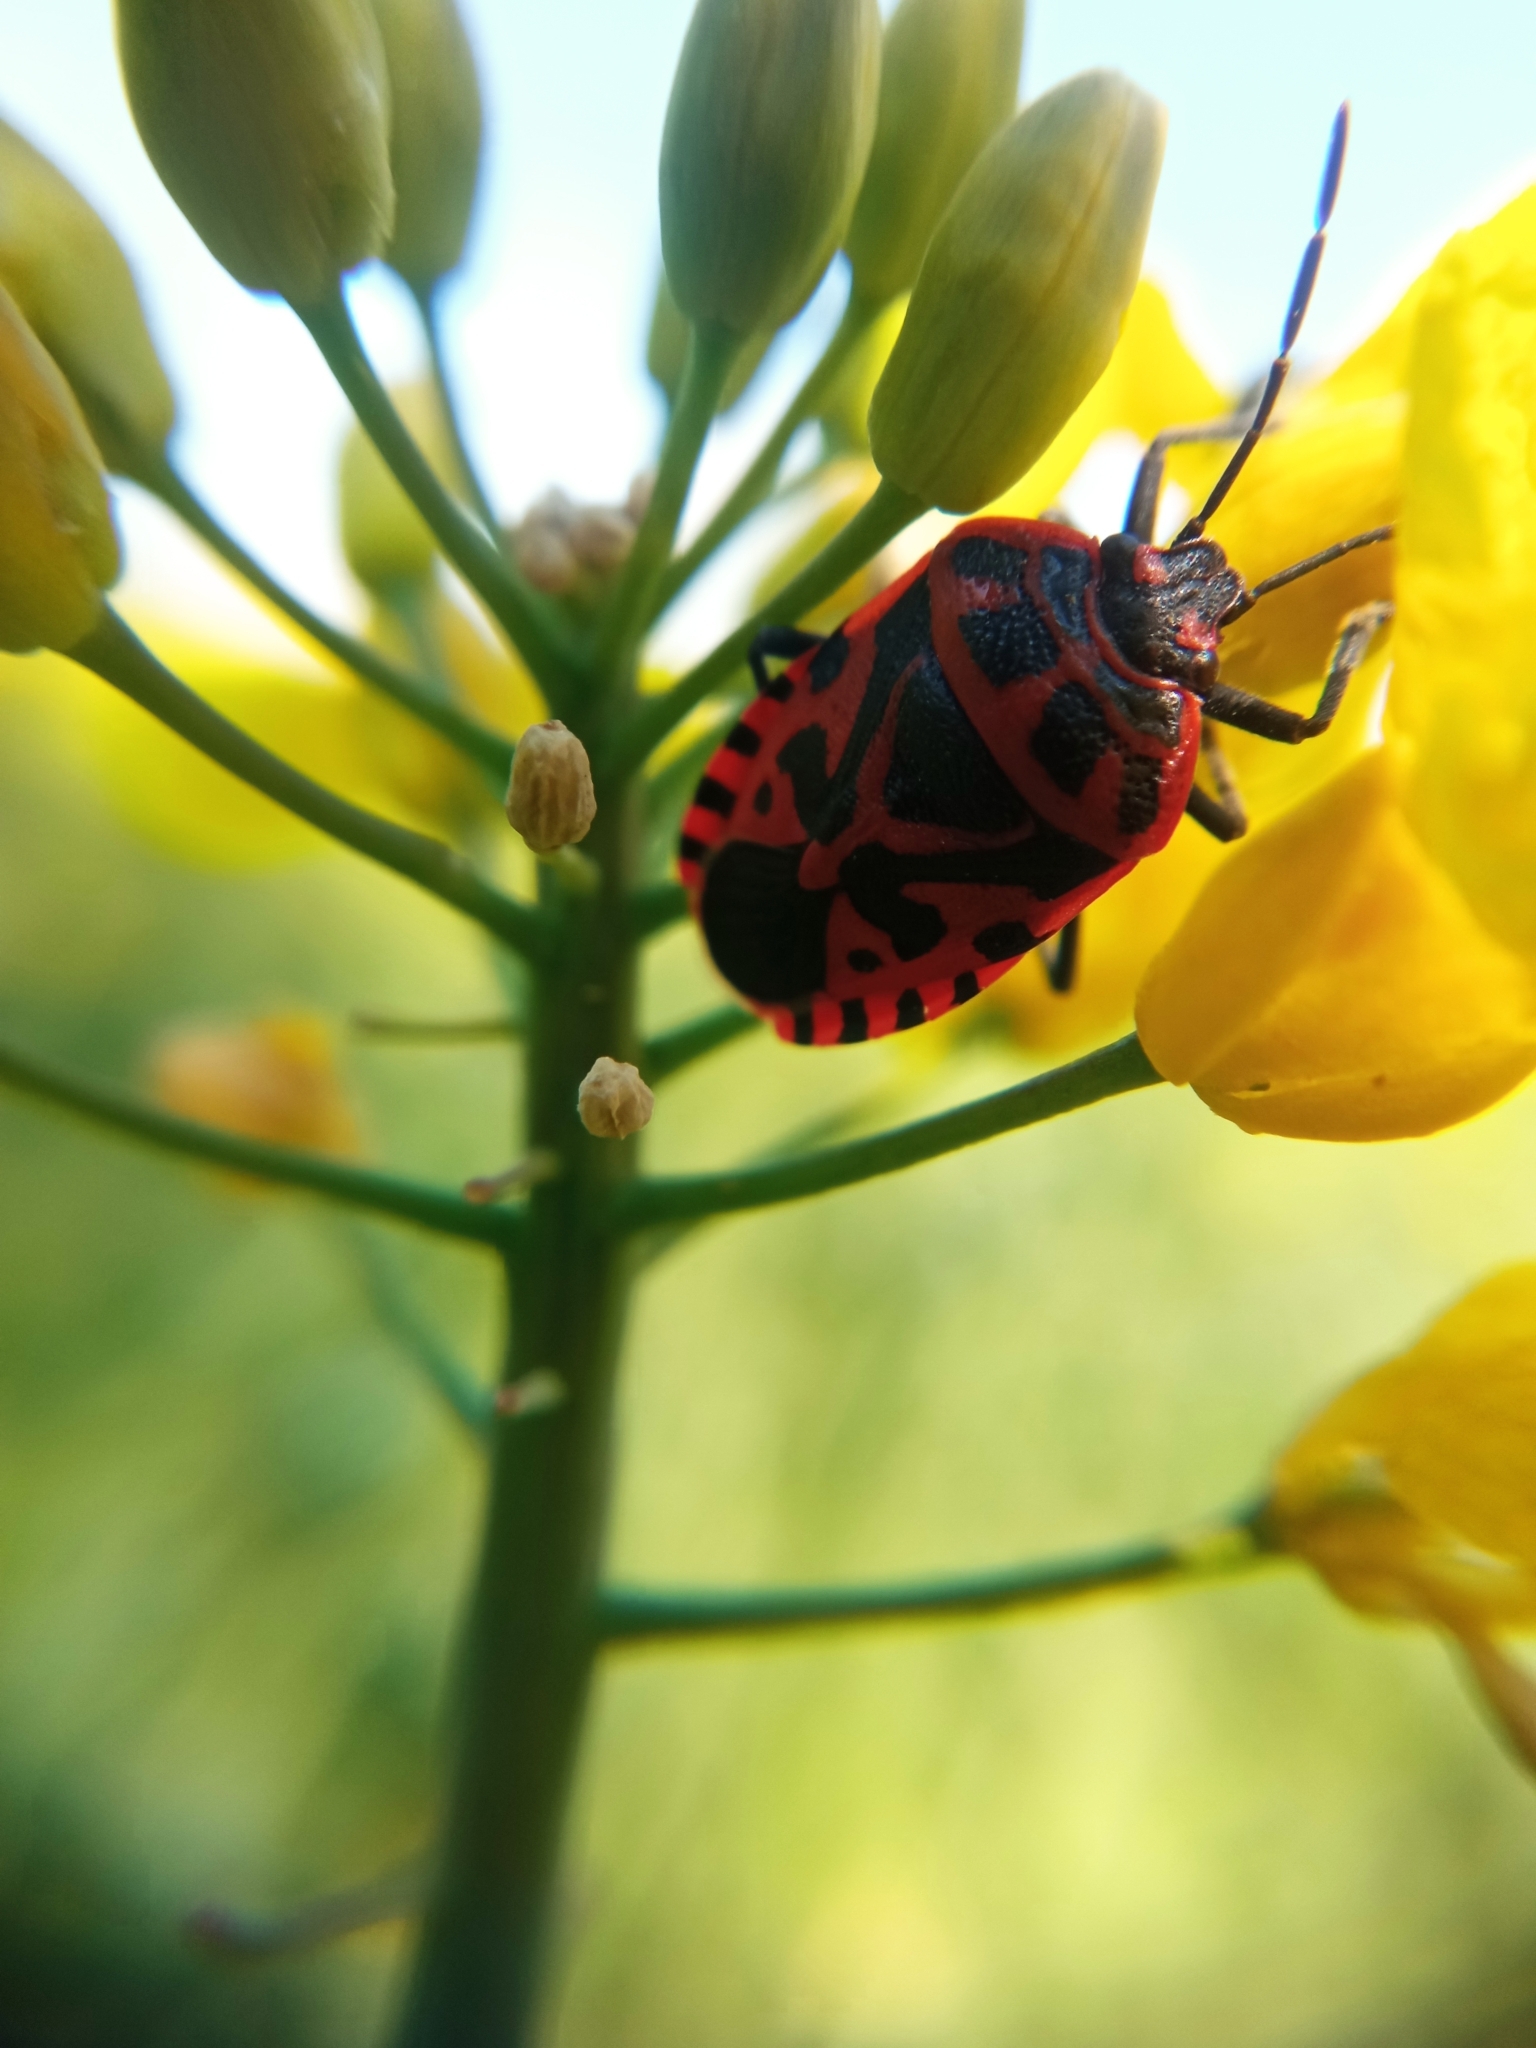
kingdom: Animalia
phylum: Arthropoda
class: Insecta
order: Hemiptera
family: Pentatomidae
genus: Eurydema
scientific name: Eurydema ventralis
